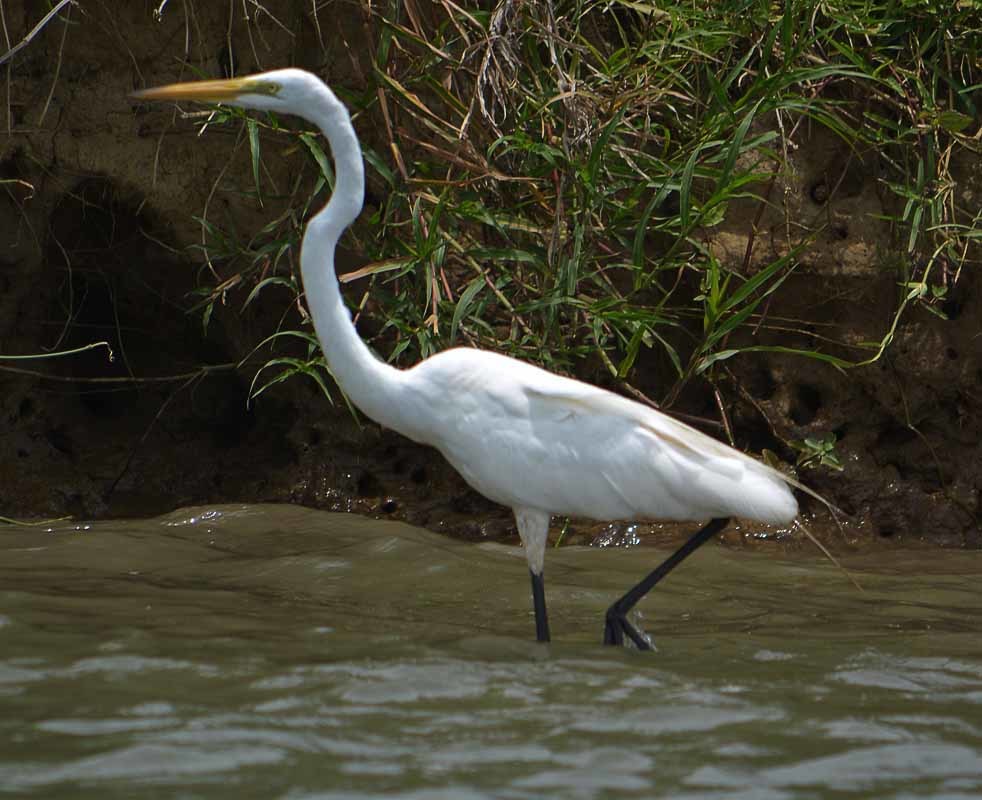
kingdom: Animalia
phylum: Chordata
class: Aves
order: Pelecaniformes
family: Ardeidae
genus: Ardea
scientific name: Ardea alba
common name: Great egret
